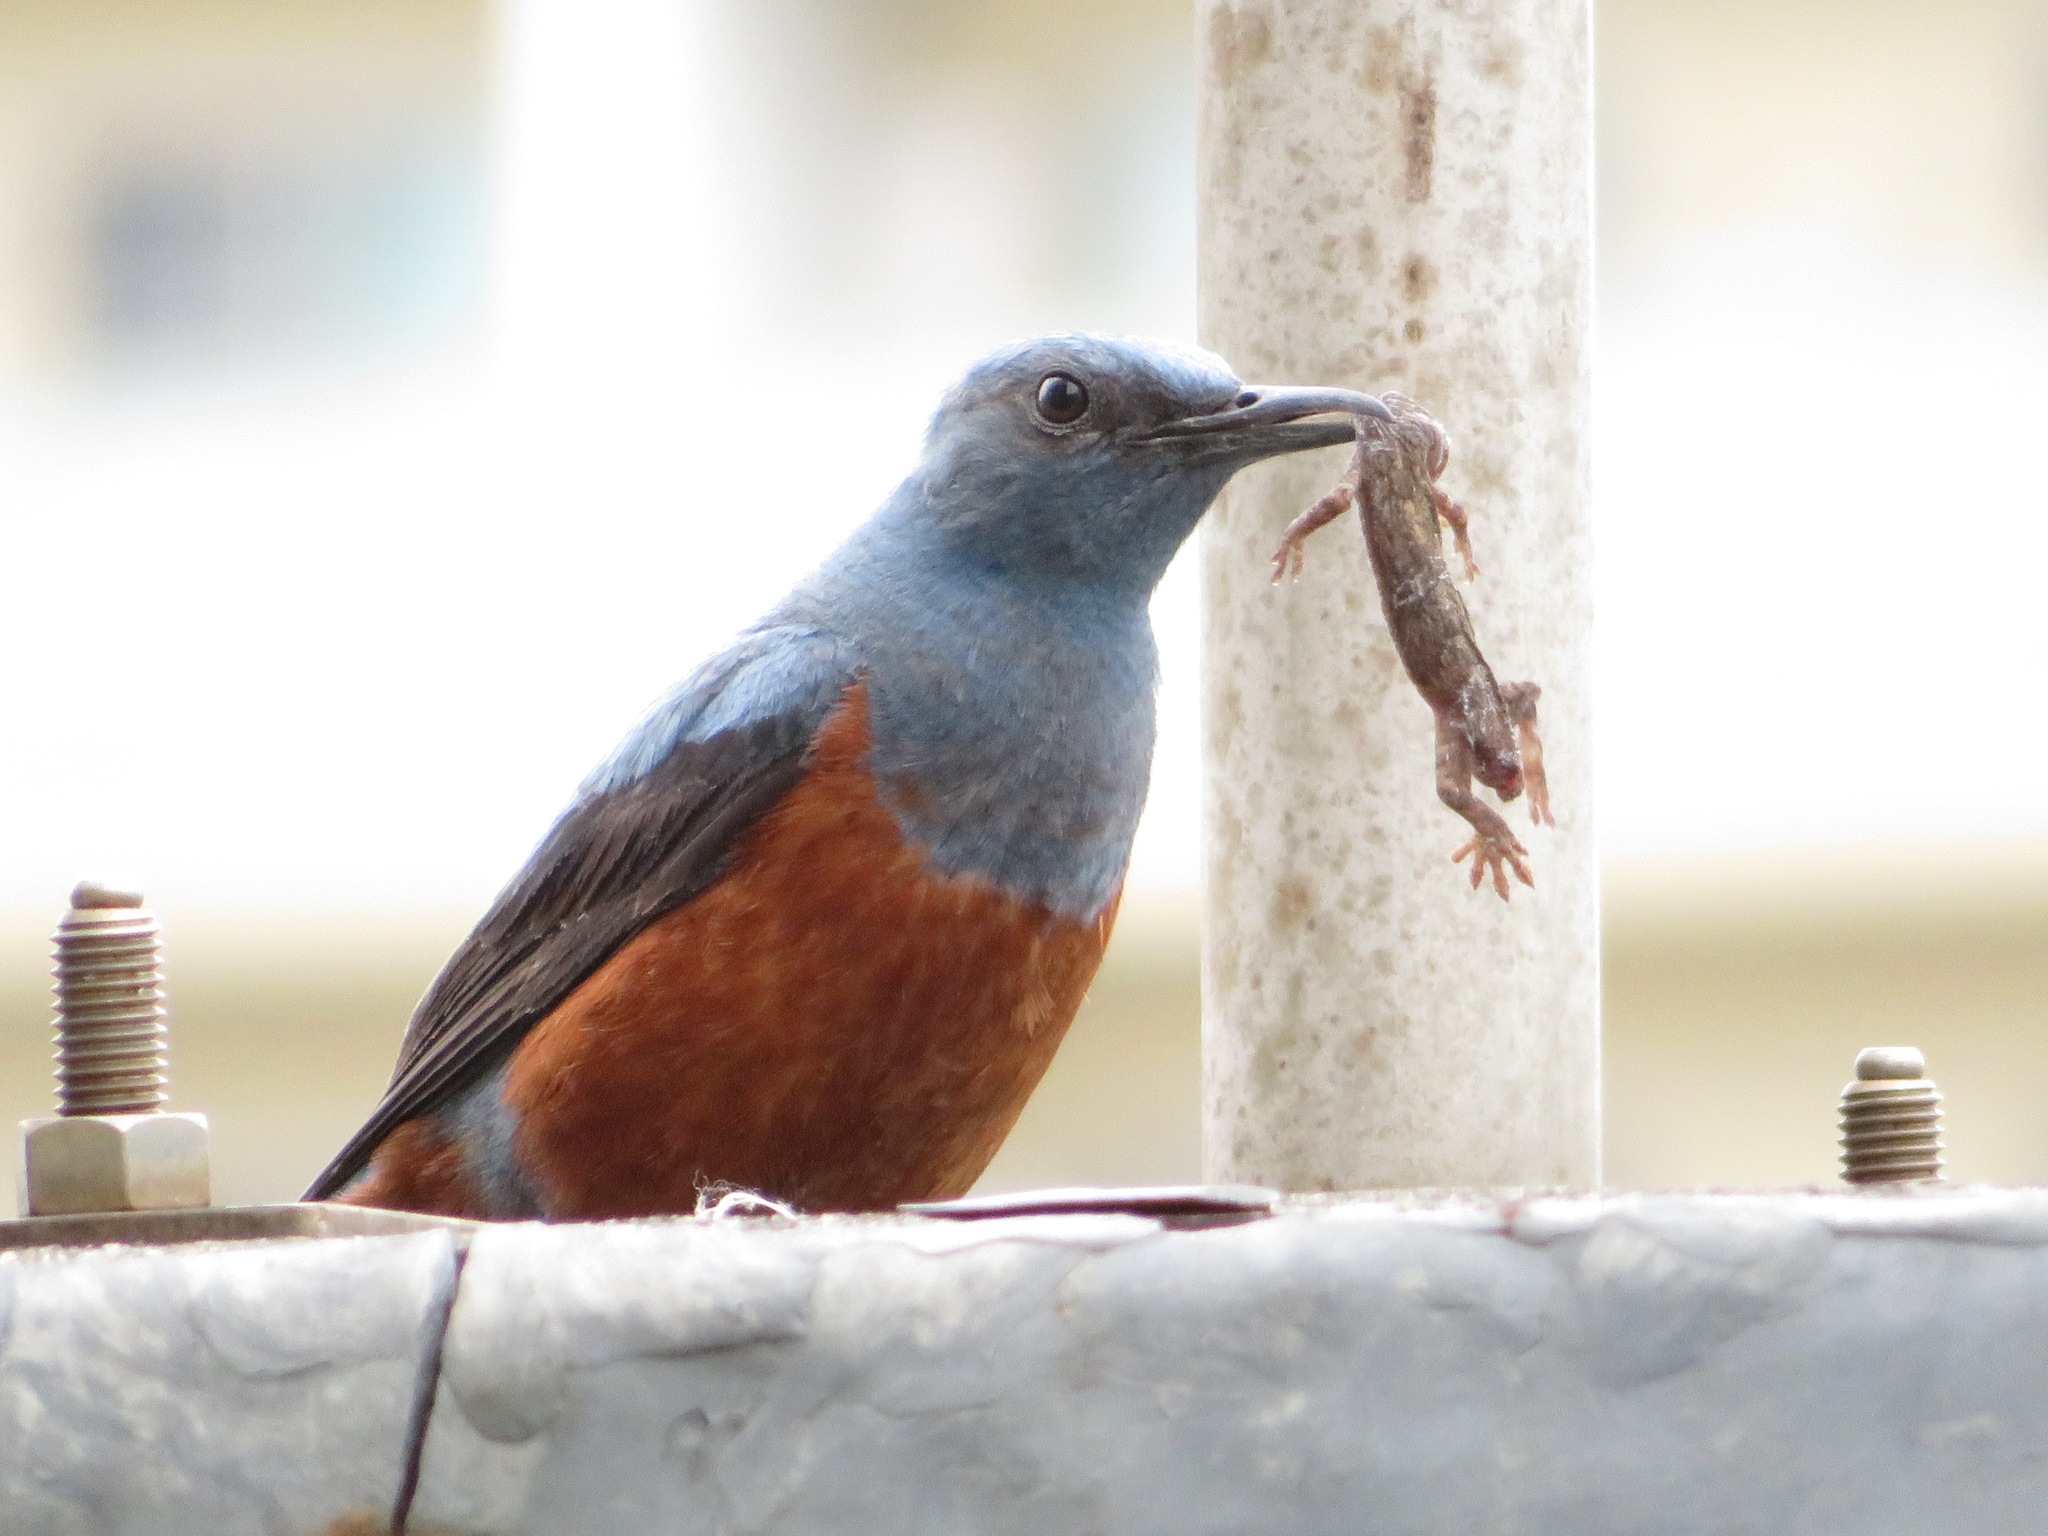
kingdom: Animalia
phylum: Chordata
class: Aves
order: Passeriformes
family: Muscicapidae
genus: Monticola
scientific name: Monticola solitarius
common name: Blue rock thrush
